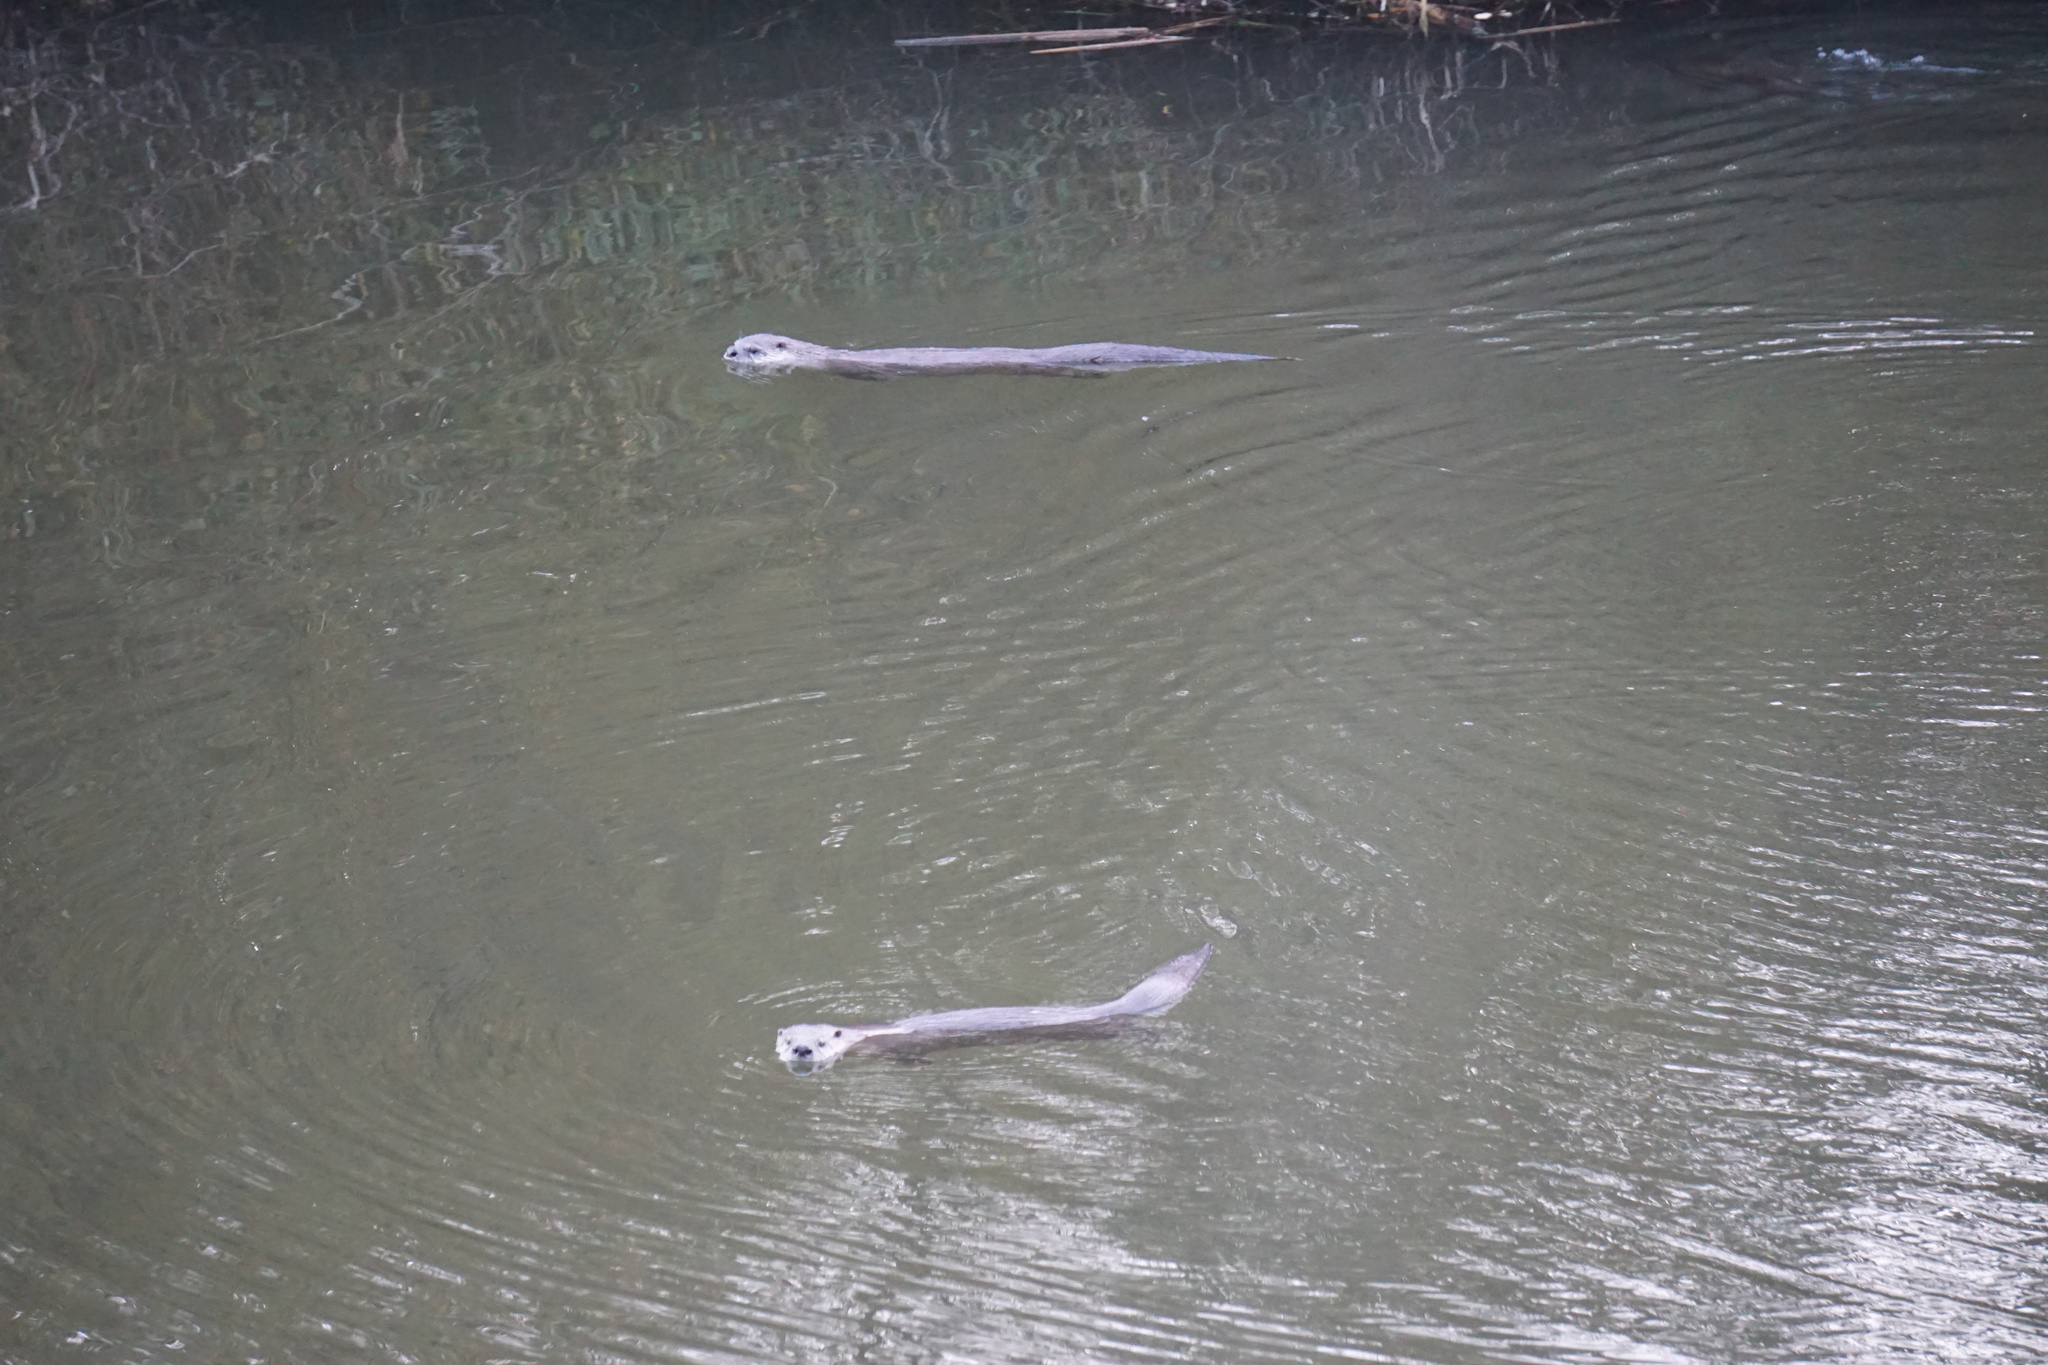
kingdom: Animalia
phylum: Chordata
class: Mammalia
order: Carnivora
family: Mustelidae
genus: Lontra
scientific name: Lontra canadensis
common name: North american river otter
